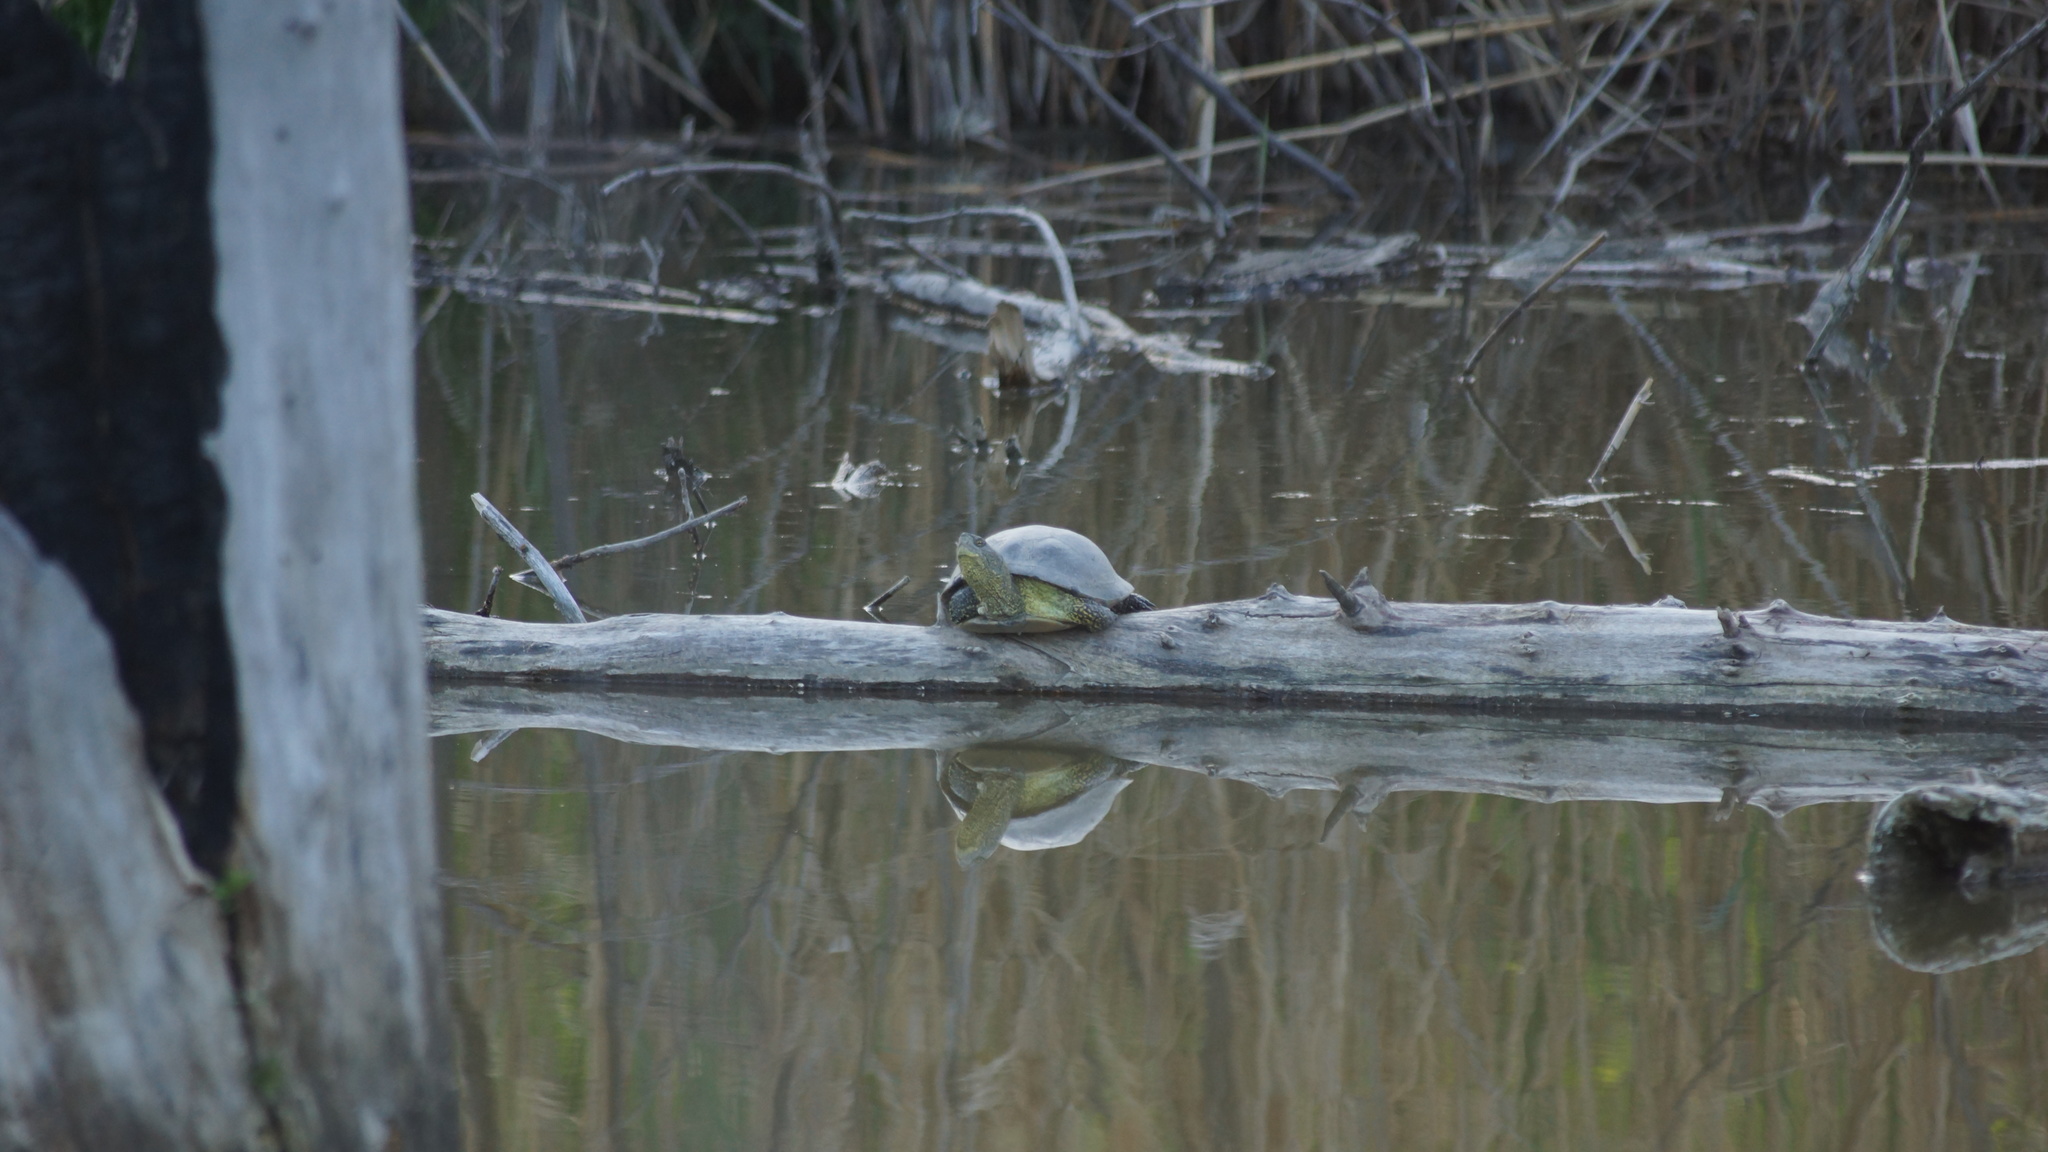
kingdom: Animalia
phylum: Chordata
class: Testudines
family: Emydidae
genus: Emys
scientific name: Emys orbicularis
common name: European pond turtle
